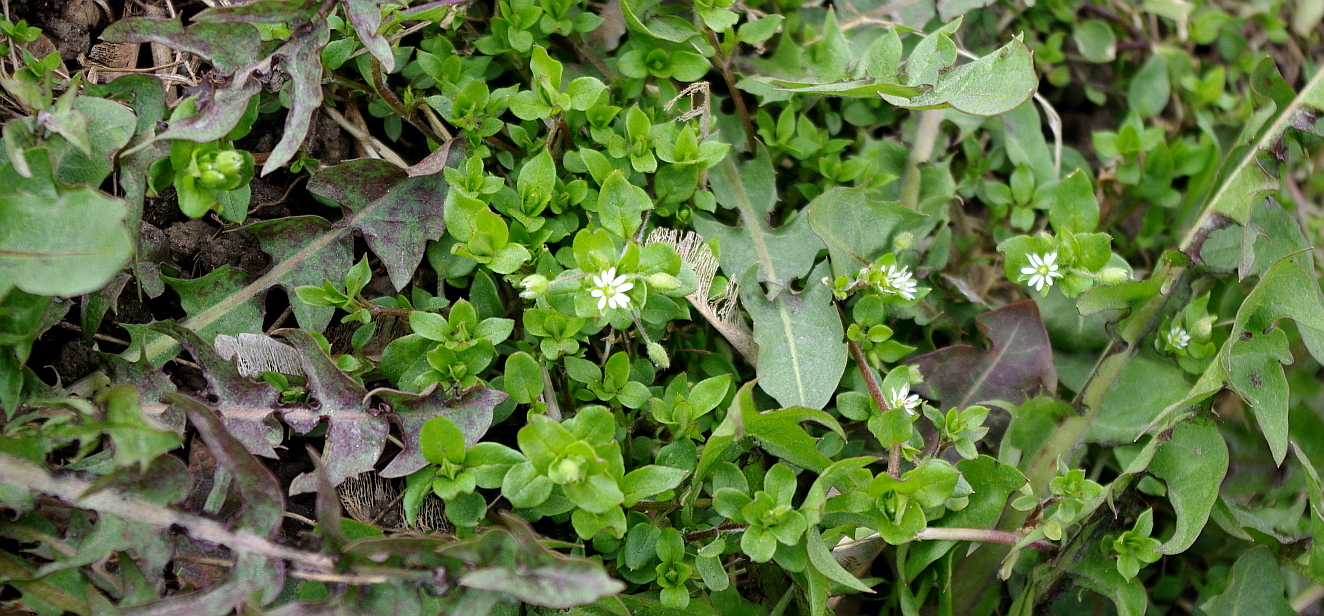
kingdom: Plantae
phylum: Tracheophyta
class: Magnoliopsida
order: Caryophyllales
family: Caryophyllaceae
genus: Stellaria
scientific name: Stellaria media
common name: Common chickweed
